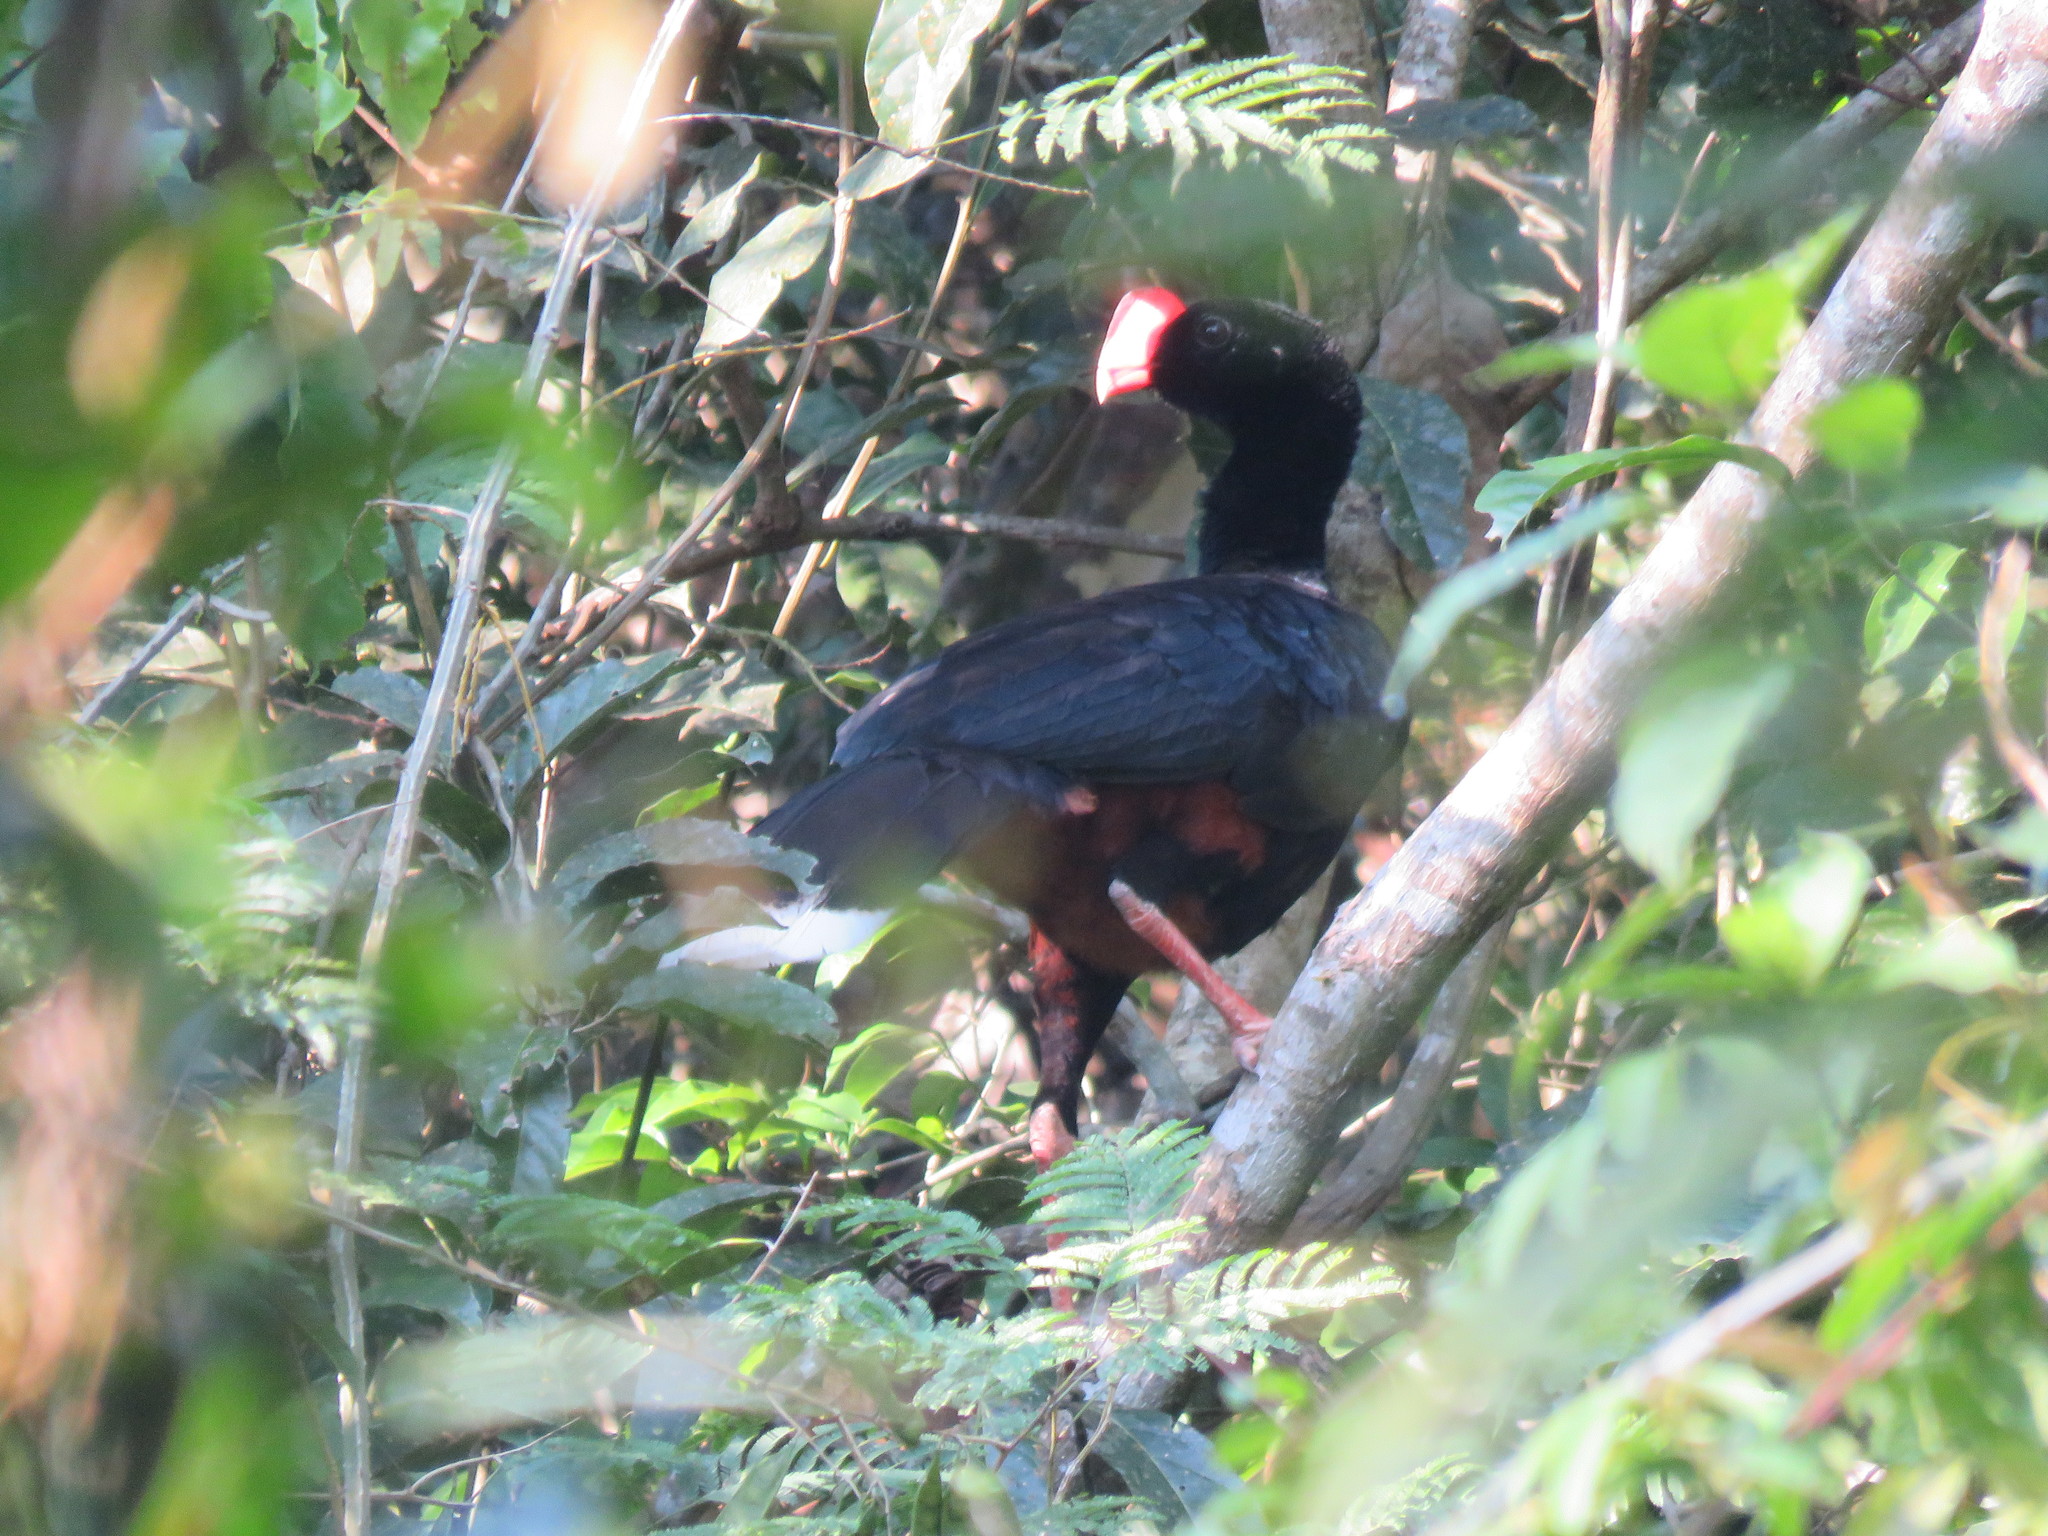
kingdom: Animalia
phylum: Chordata
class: Aves
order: Galliformes
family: Cracidae
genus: Mitu
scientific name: Mitu tuberosum
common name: Razor-billed curassow
